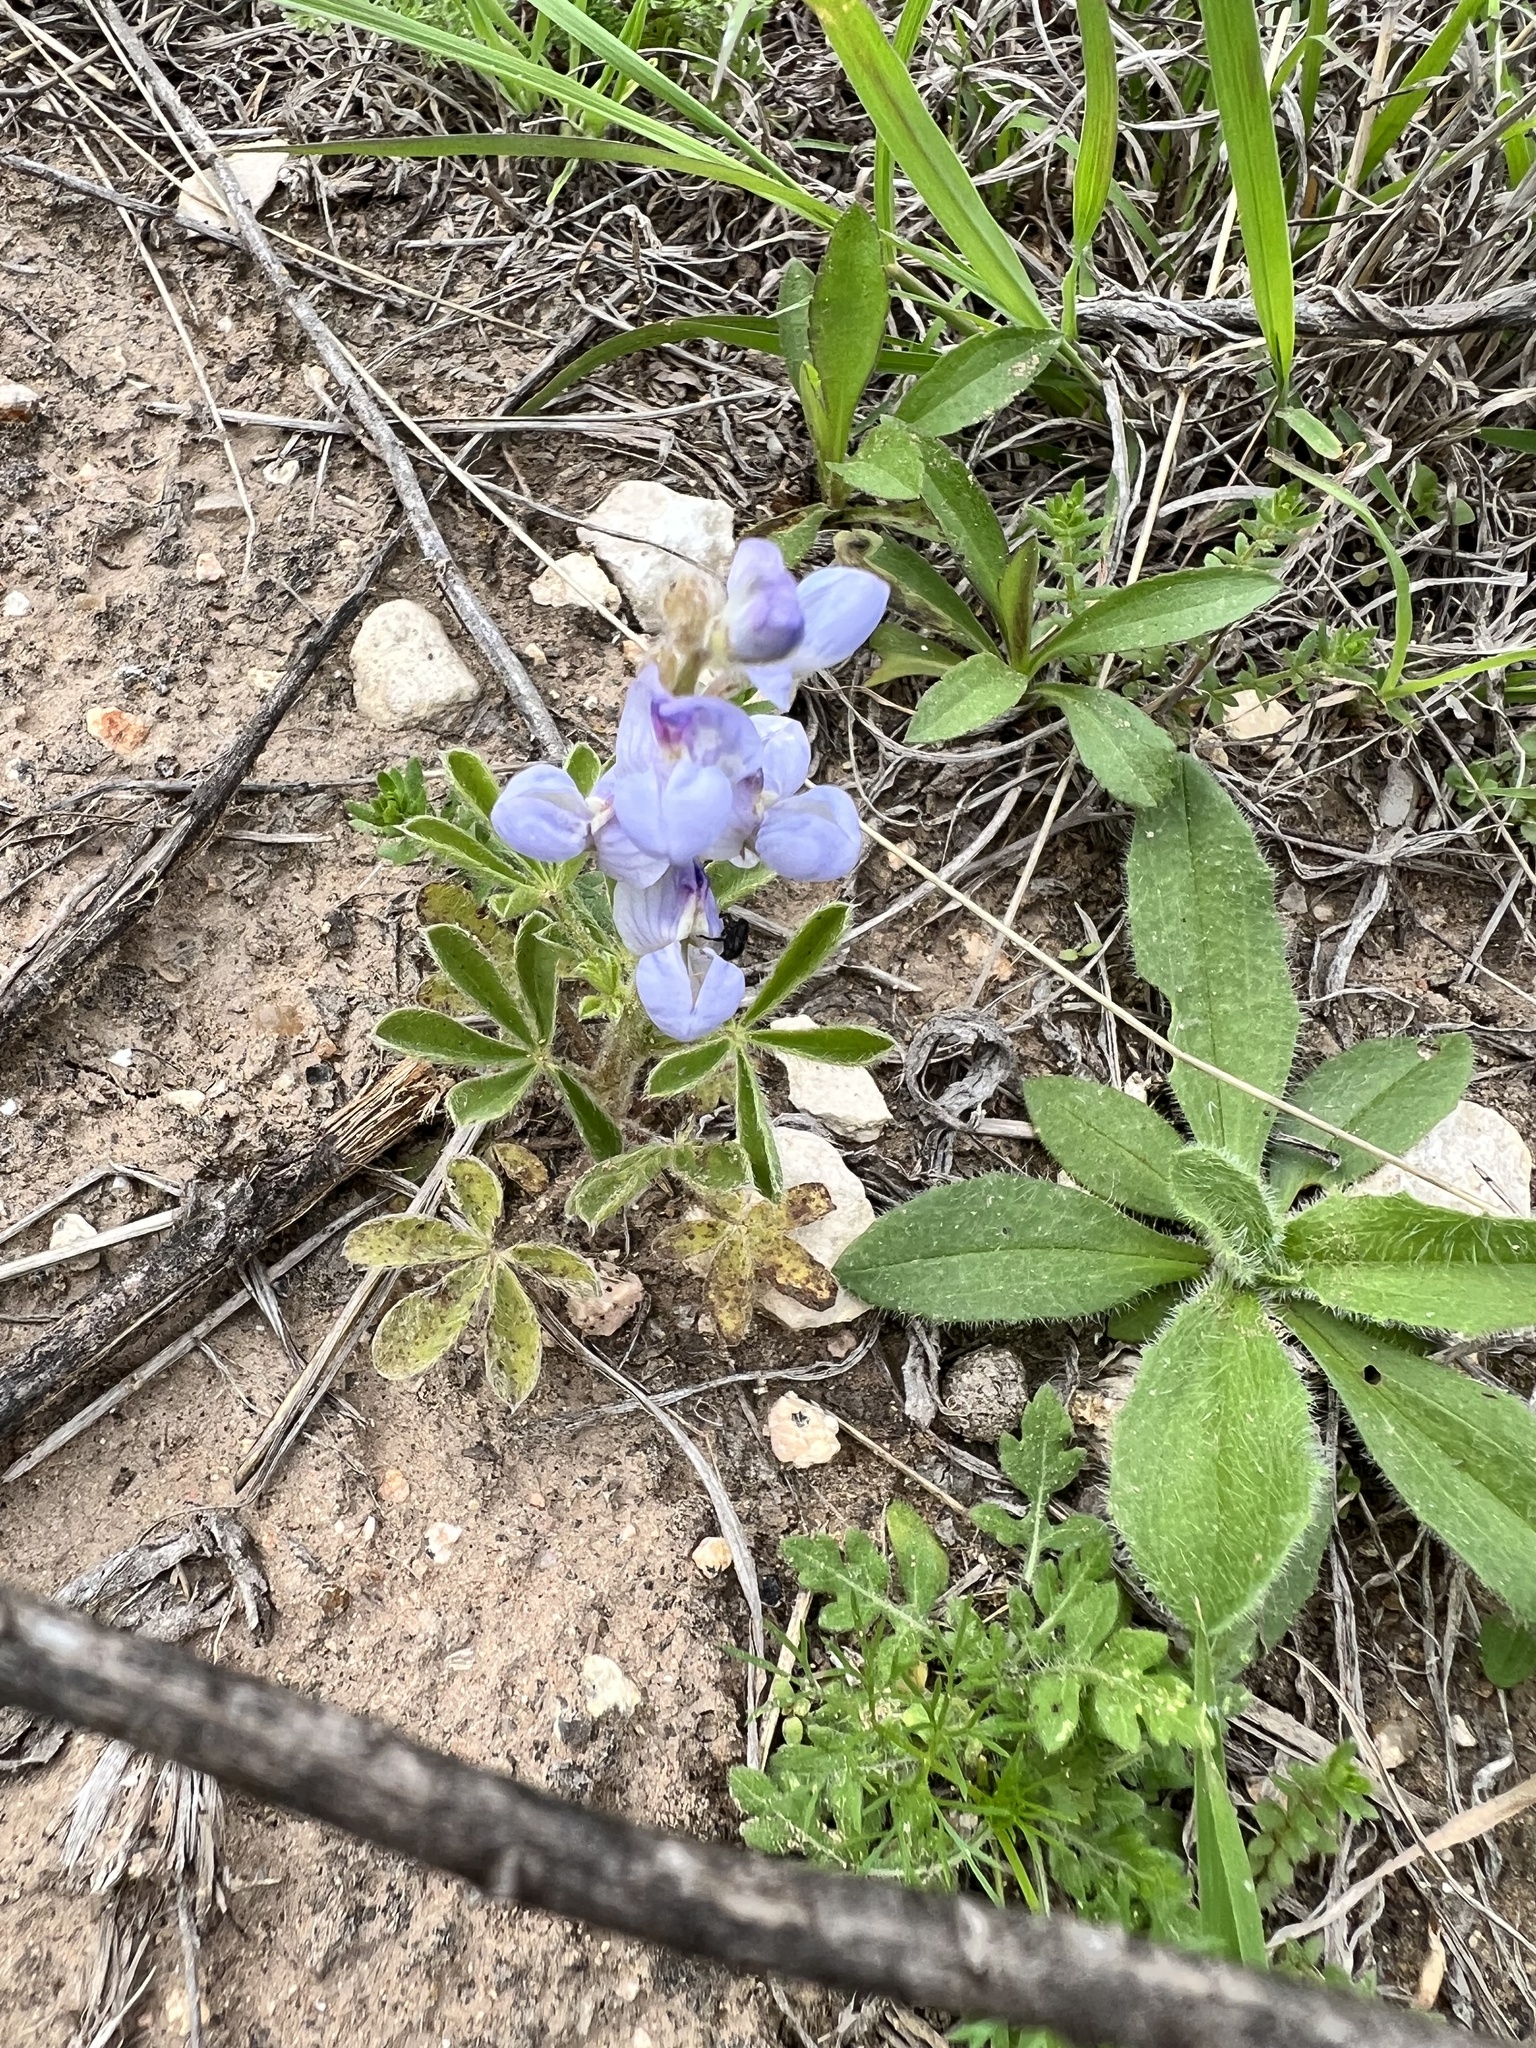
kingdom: Plantae
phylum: Tracheophyta
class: Magnoliopsida
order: Fabales
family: Fabaceae
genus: Lupinus
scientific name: Lupinus subcarnosus
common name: Texas bluebonnet
